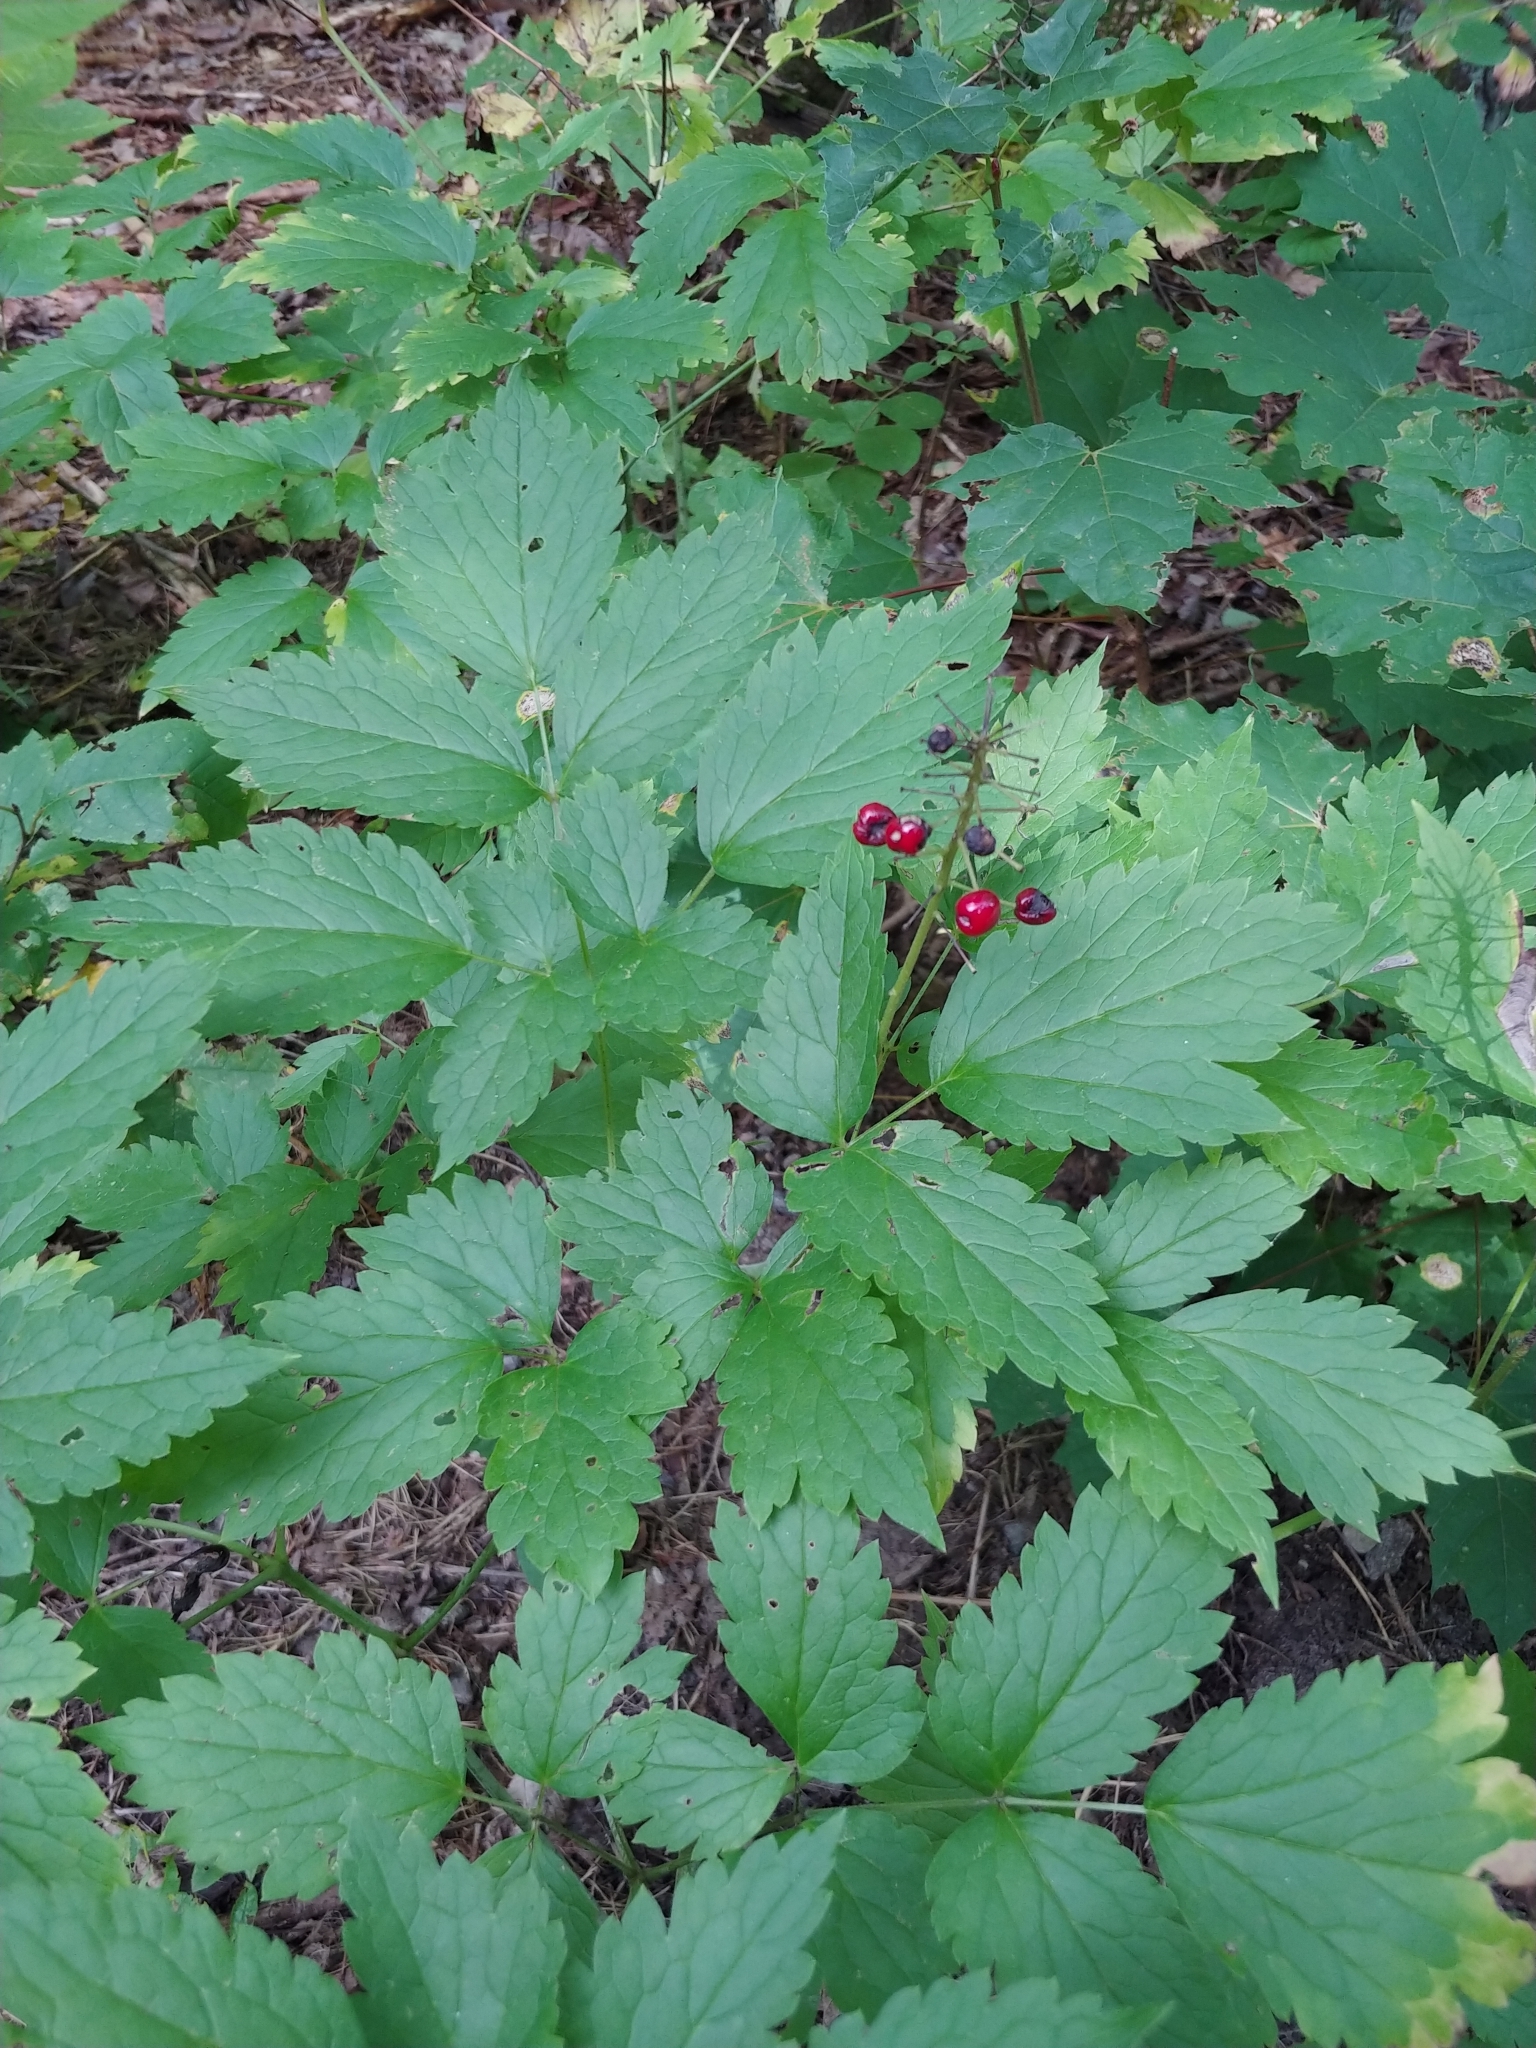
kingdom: Plantae
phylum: Tracheophyta
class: Magnoliopsida
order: Ranunculales
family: Ranunculaceae
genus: Actaea
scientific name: Actaea rubra
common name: Red baneberry
